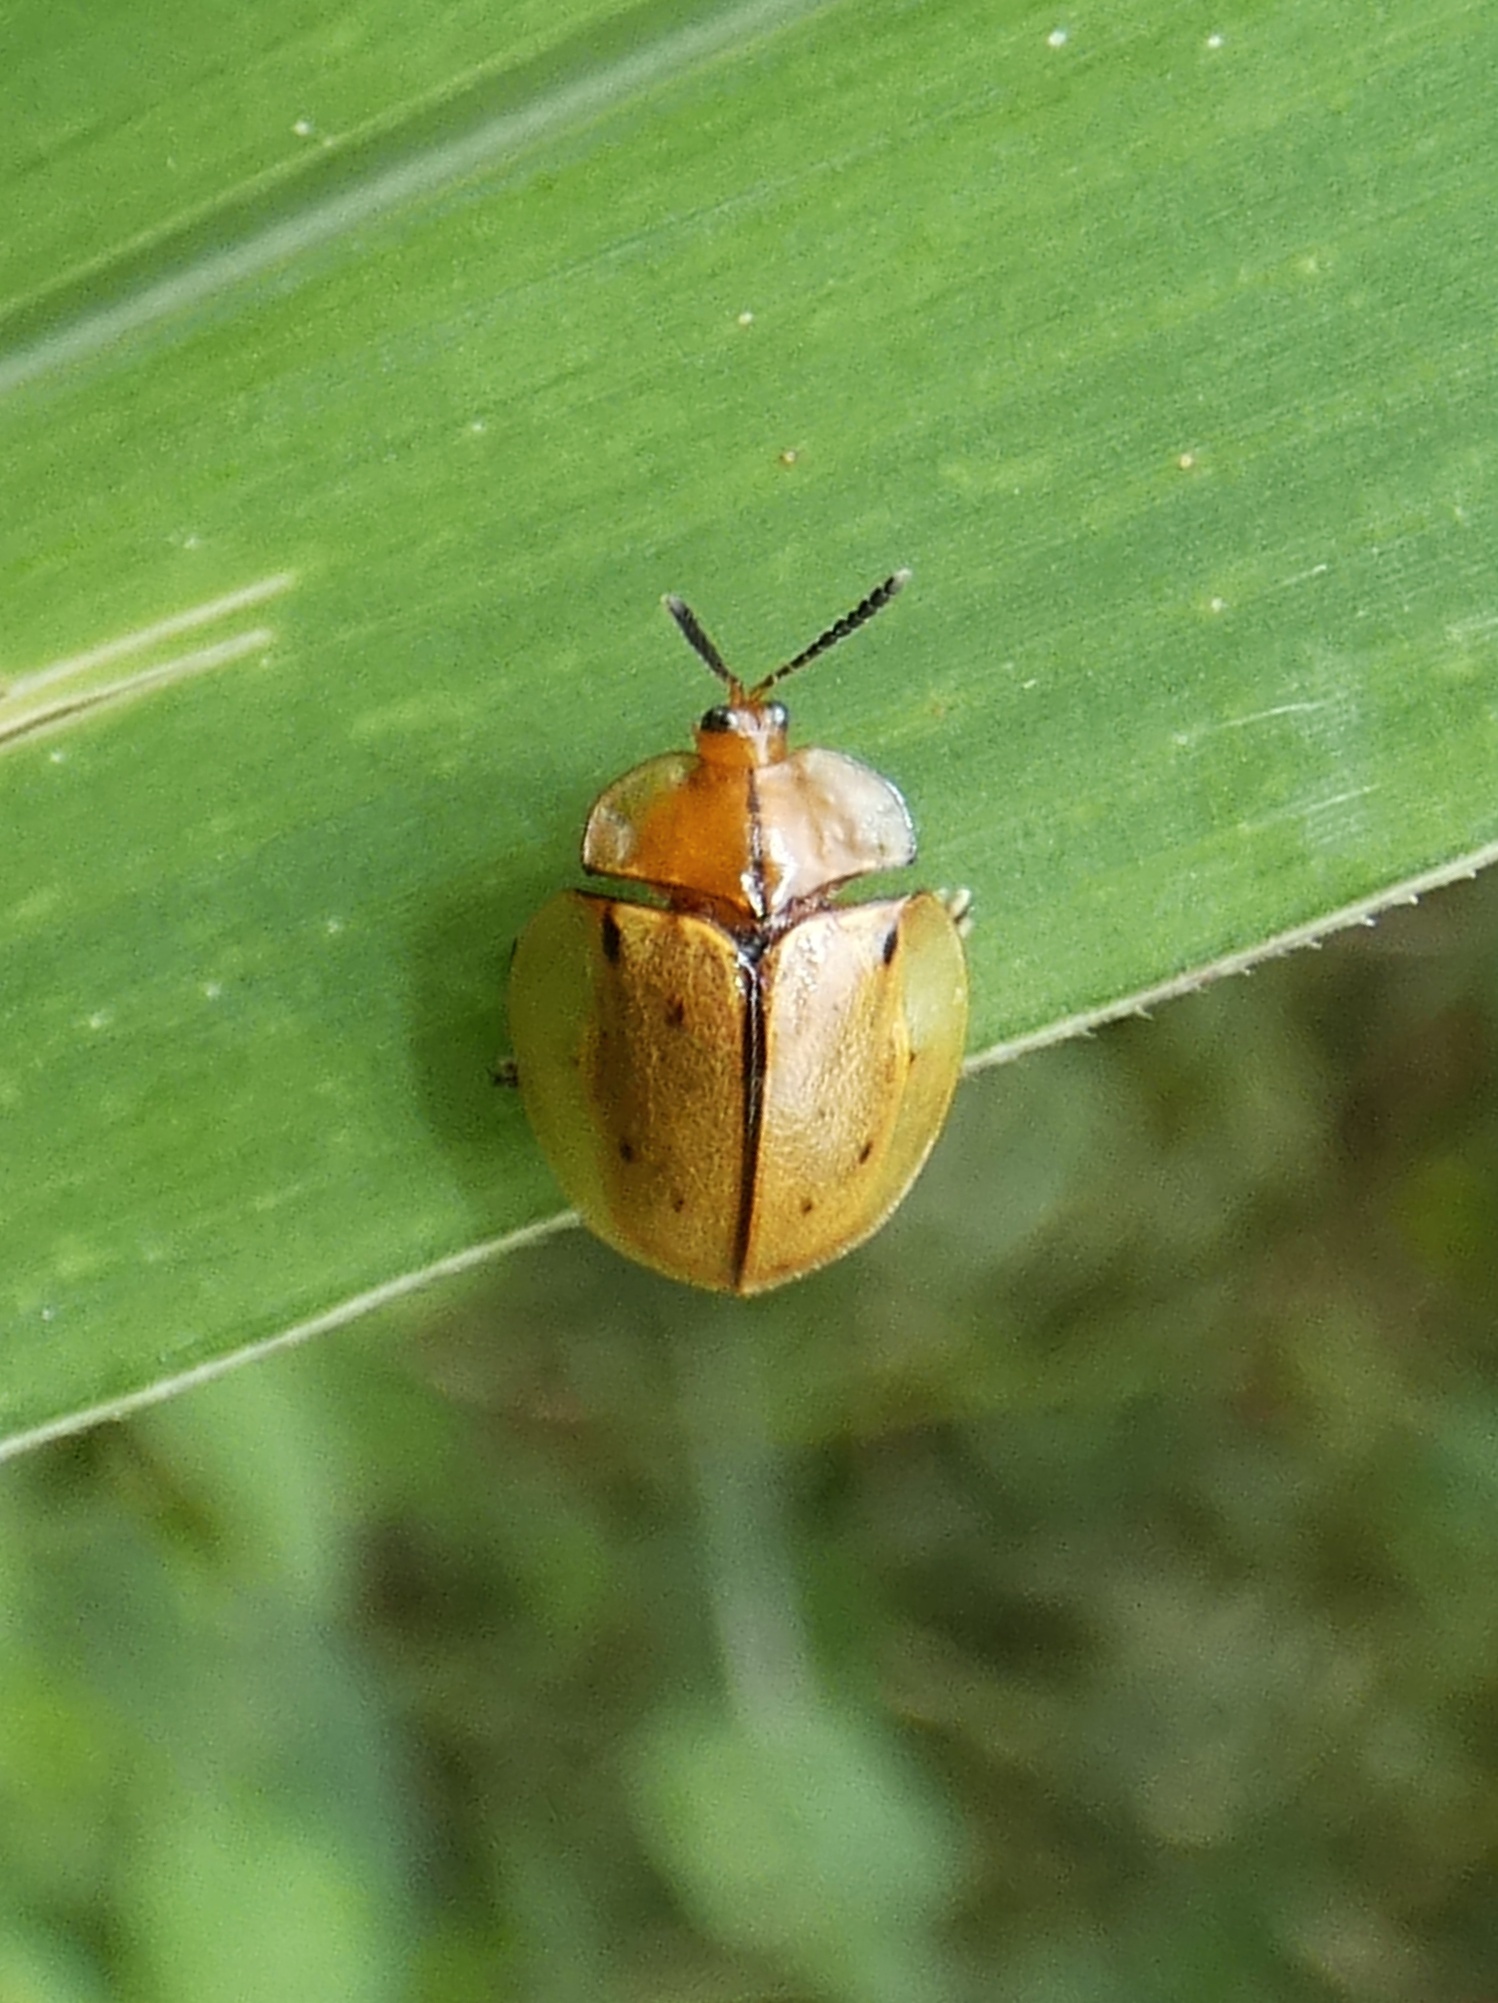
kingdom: Animalia
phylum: Arthropoda
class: Insecta
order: Coleoptera
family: Chrysomelidae
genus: Stolas
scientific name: Stolas pertusa
